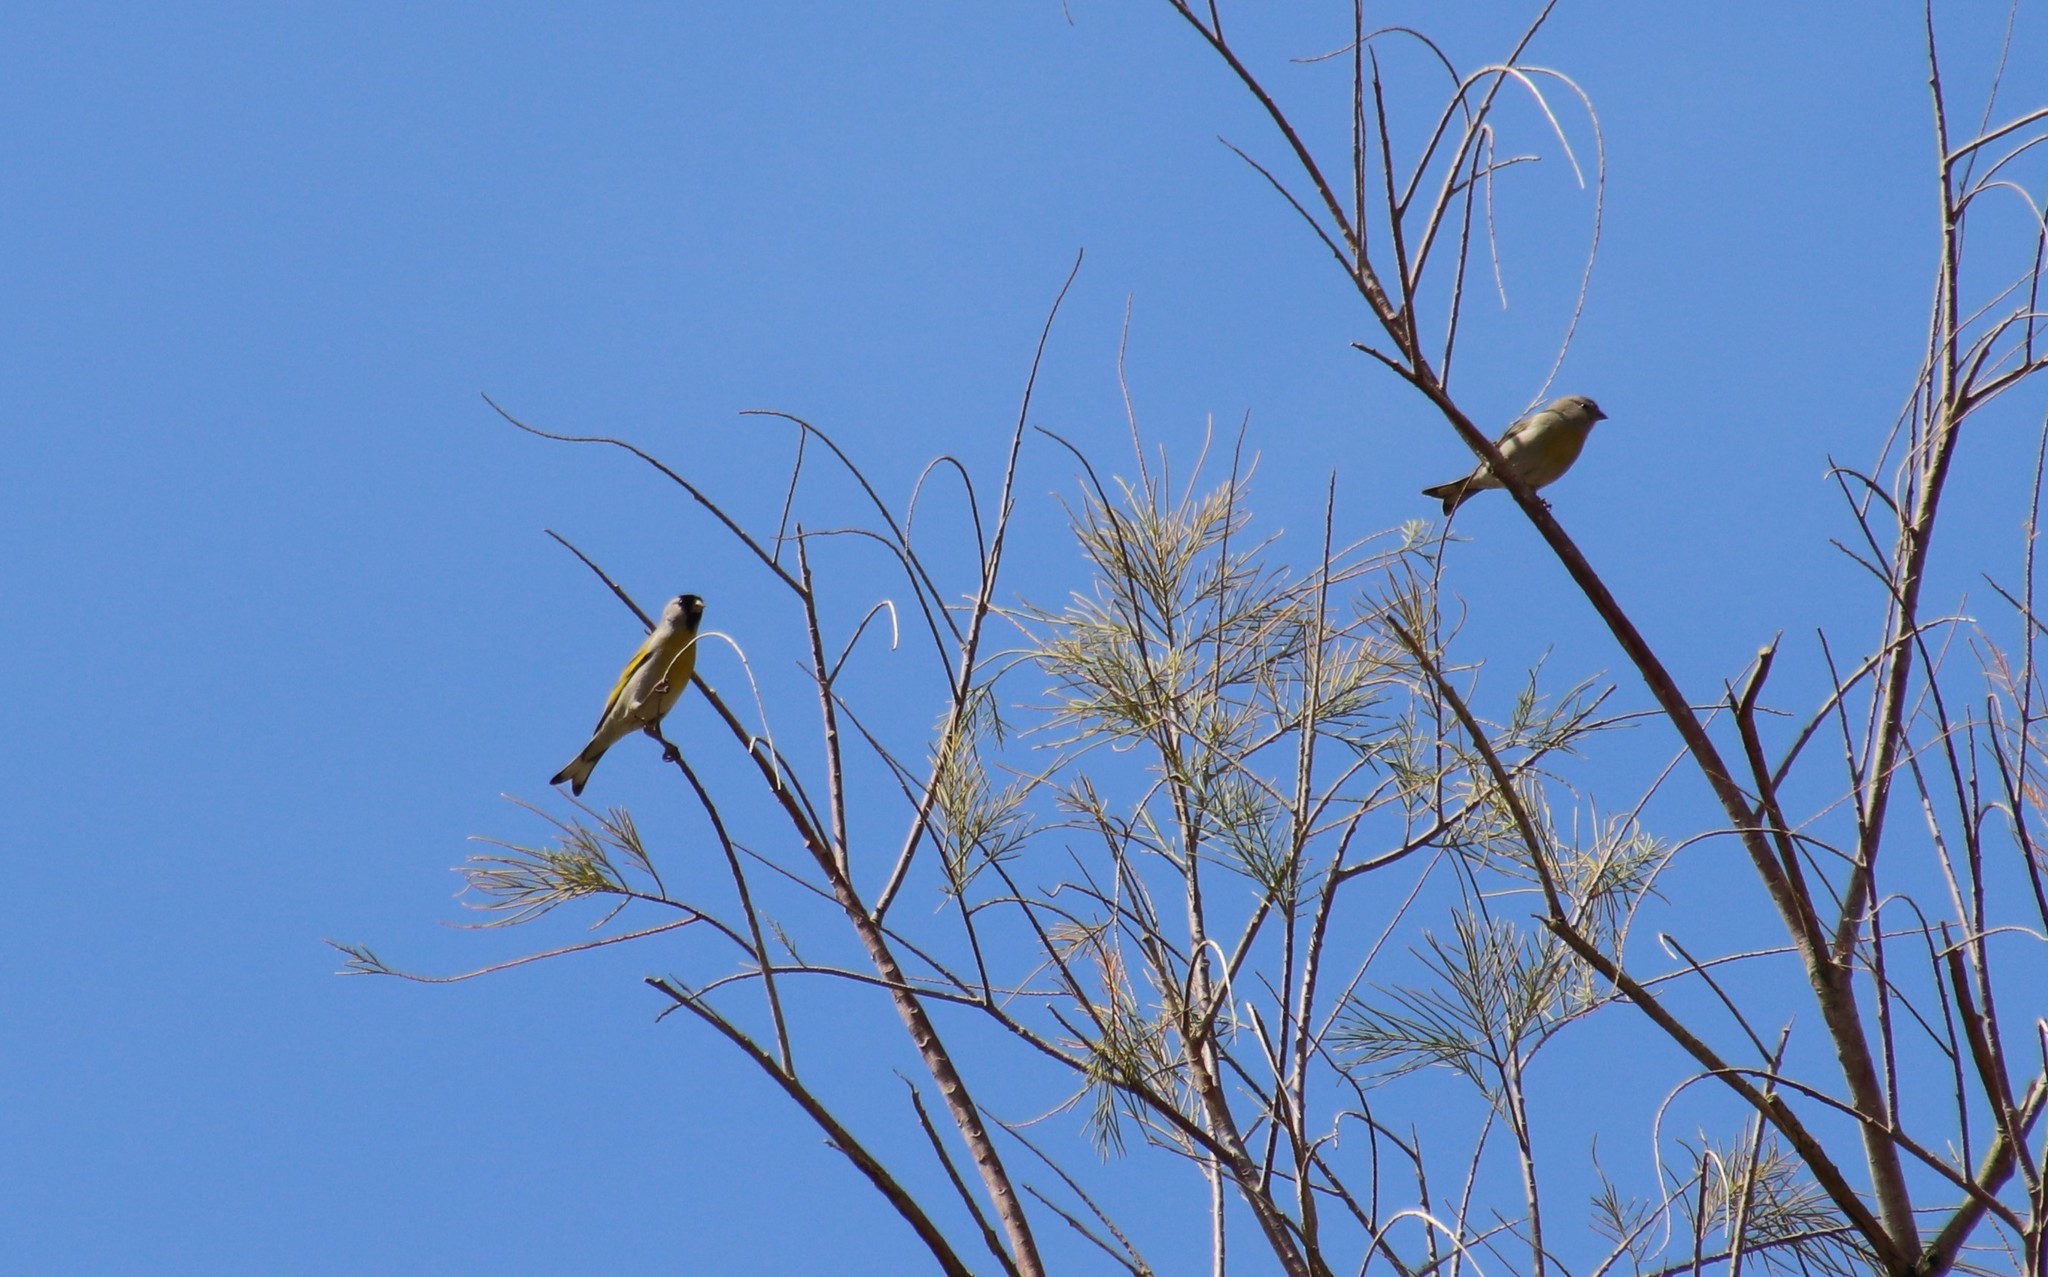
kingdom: Animalia
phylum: Chordata
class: Aves
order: Passeriformes
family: Fringillidae
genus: Spinus
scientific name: Spinus lawrencei
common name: Lawrence's goldfinch
